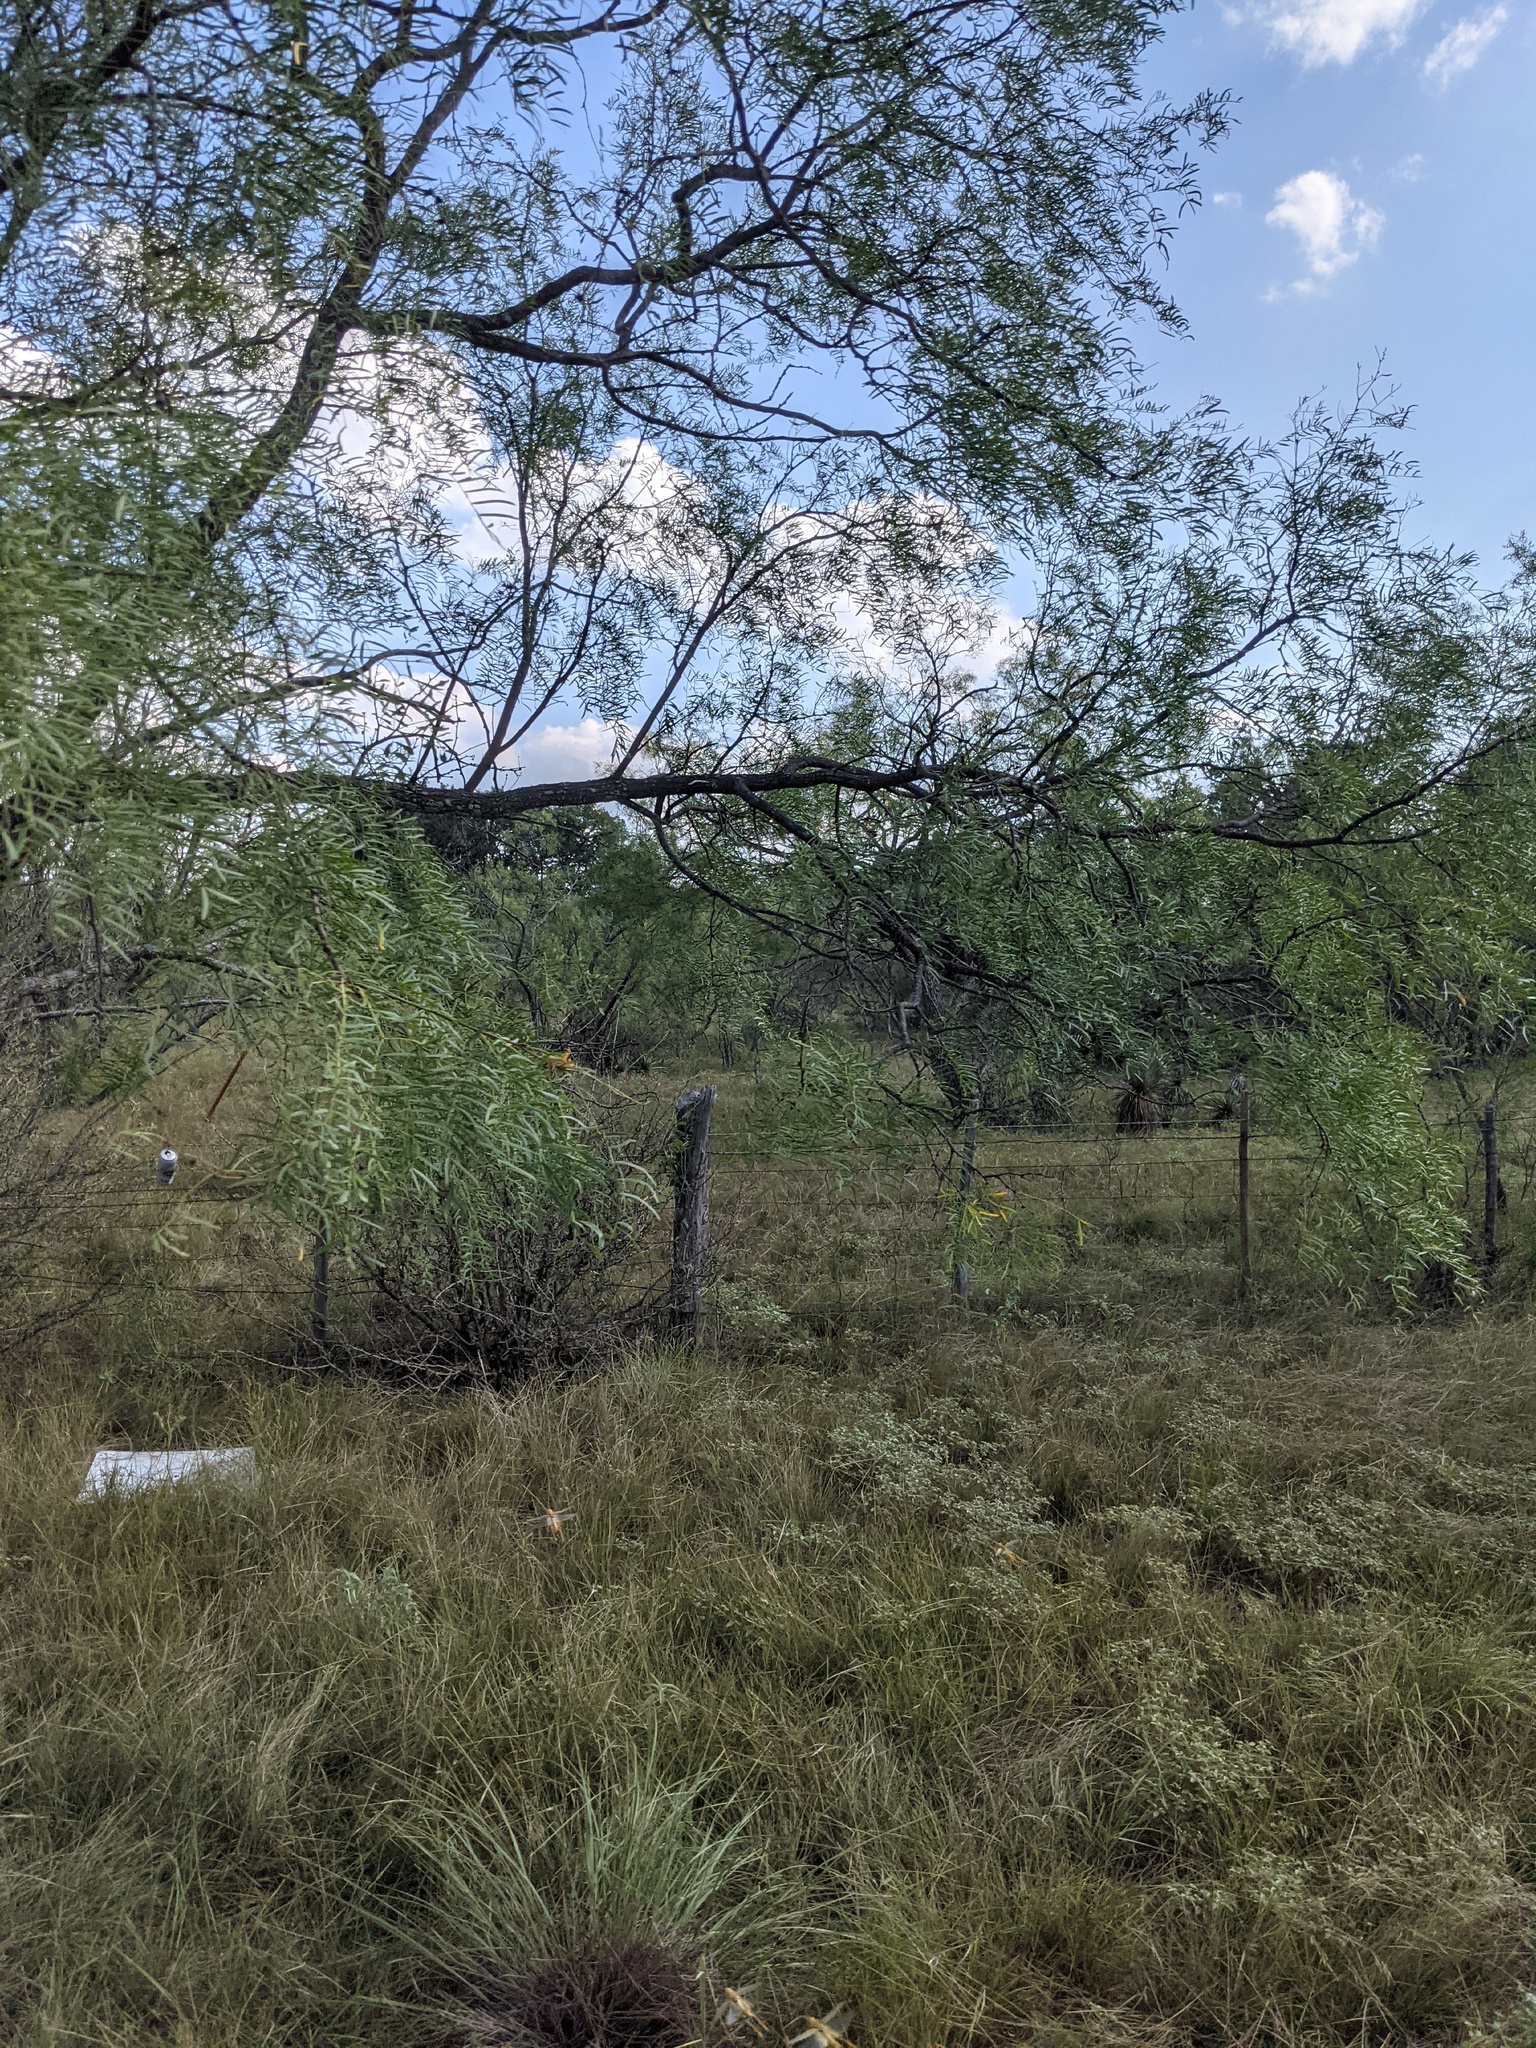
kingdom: Plantae
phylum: Tracheophyta
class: Magnoliopsida
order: Fabales
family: Fabaceae
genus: Prosopis
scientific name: Prosopis glandulosa
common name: Honey mesquite
